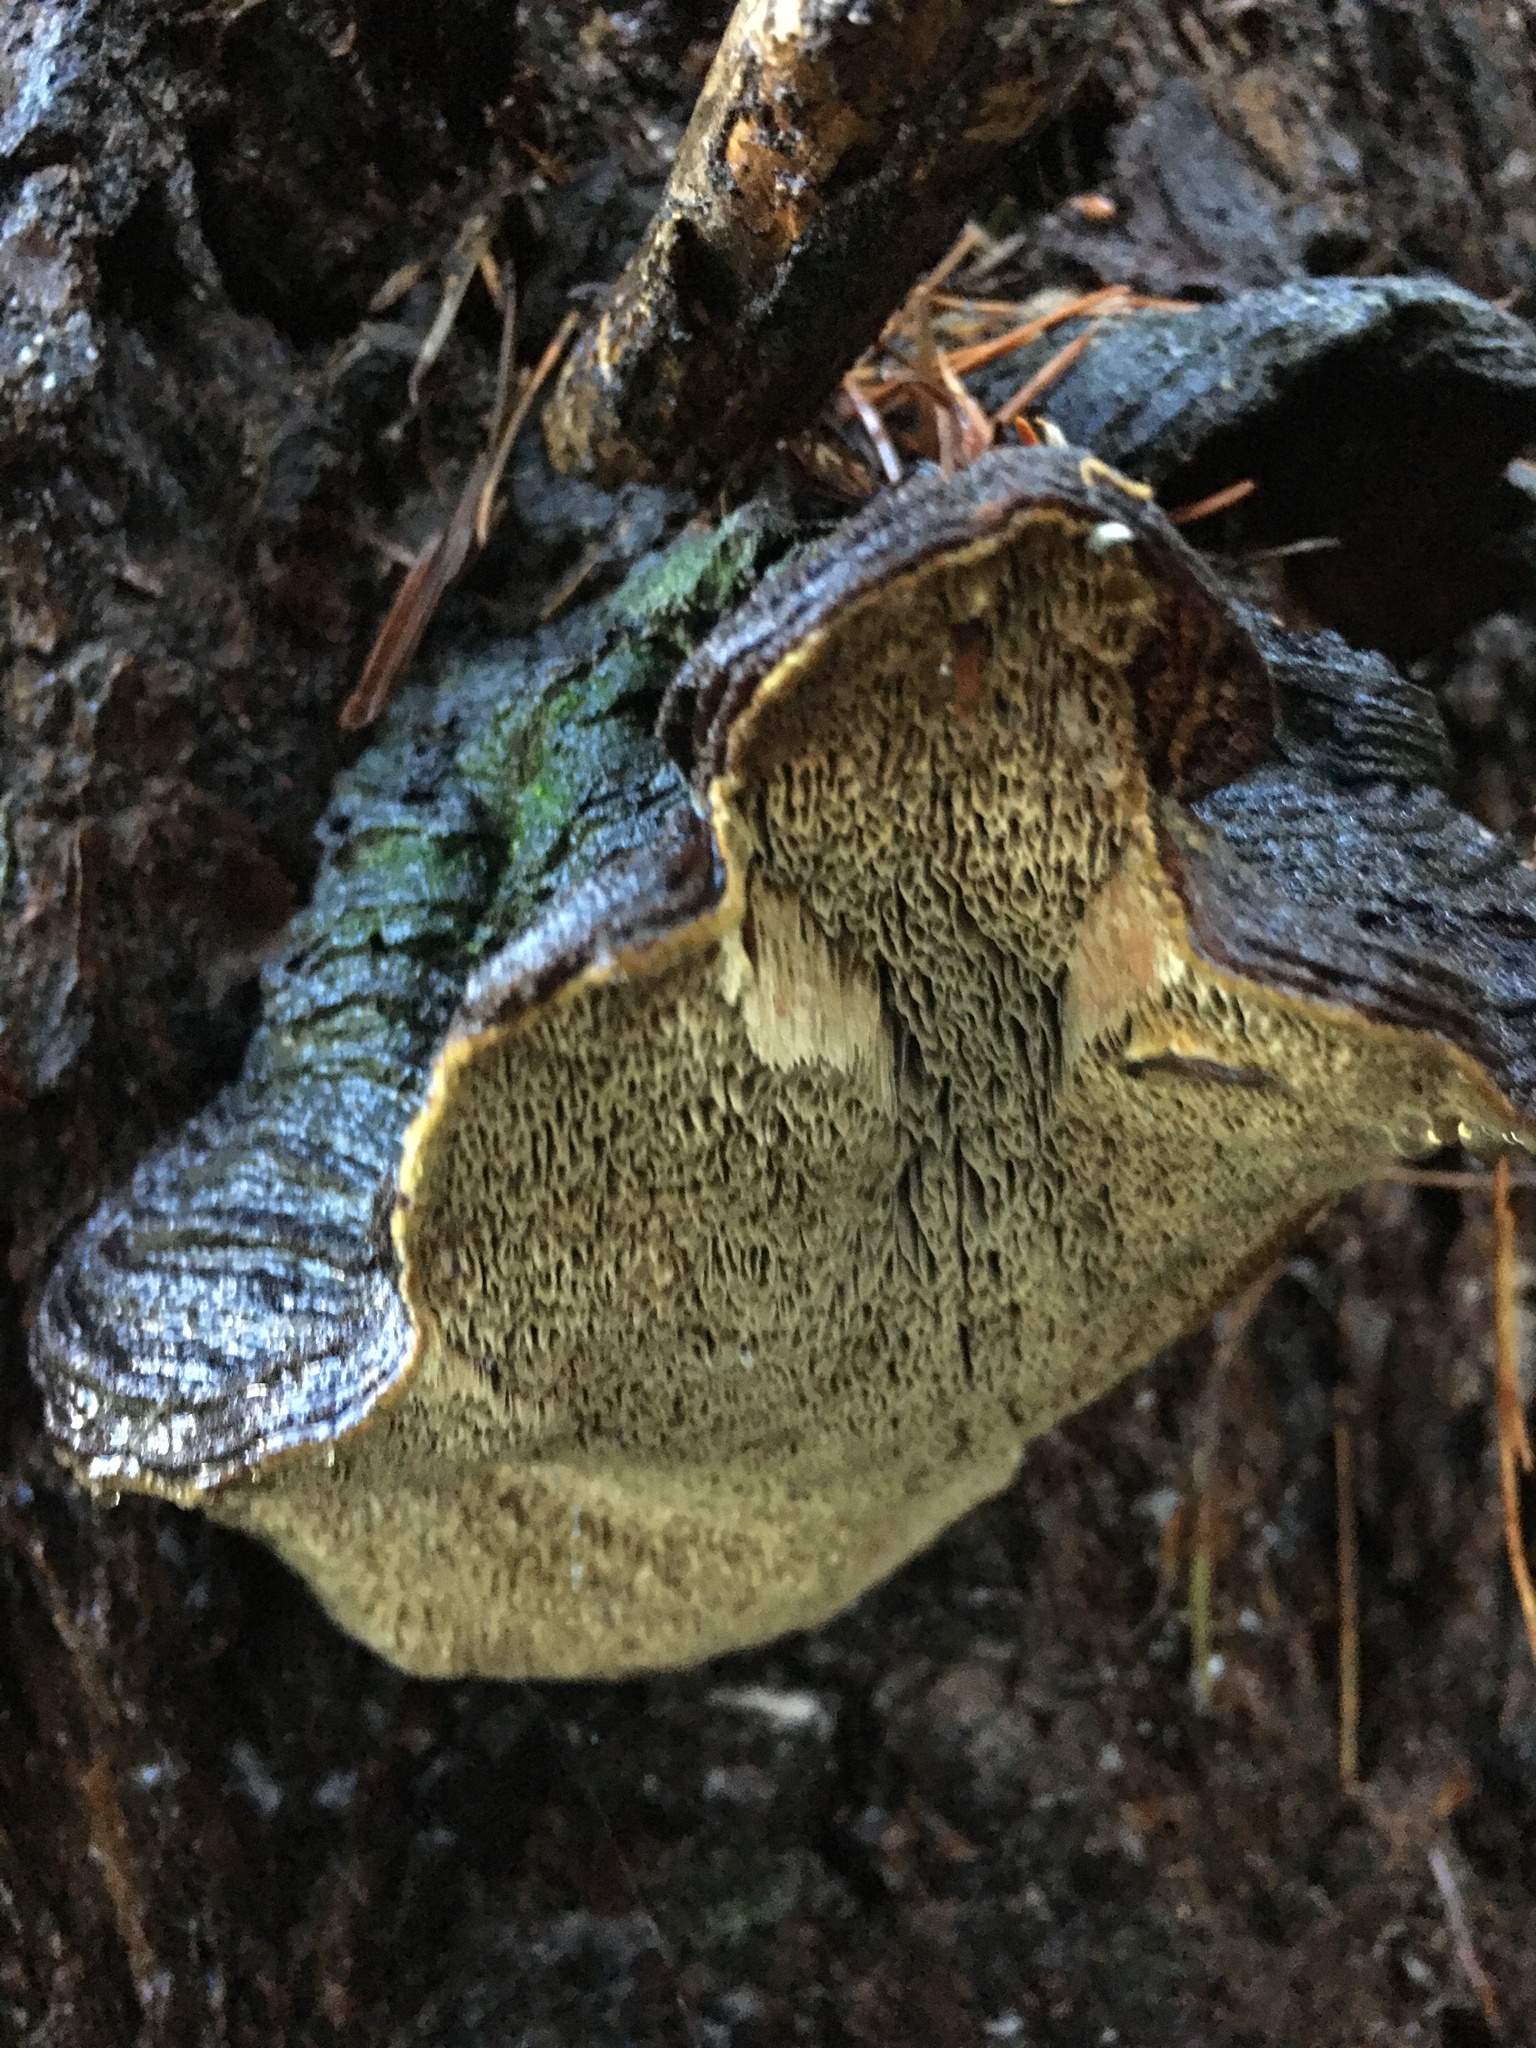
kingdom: Fungi
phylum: Basidiomycota
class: Agaricomycetes
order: Hymenochaetales
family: Hymenochaetaceae
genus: Porodaedalea
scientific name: Porodaedalea pini
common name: Pine bracket
